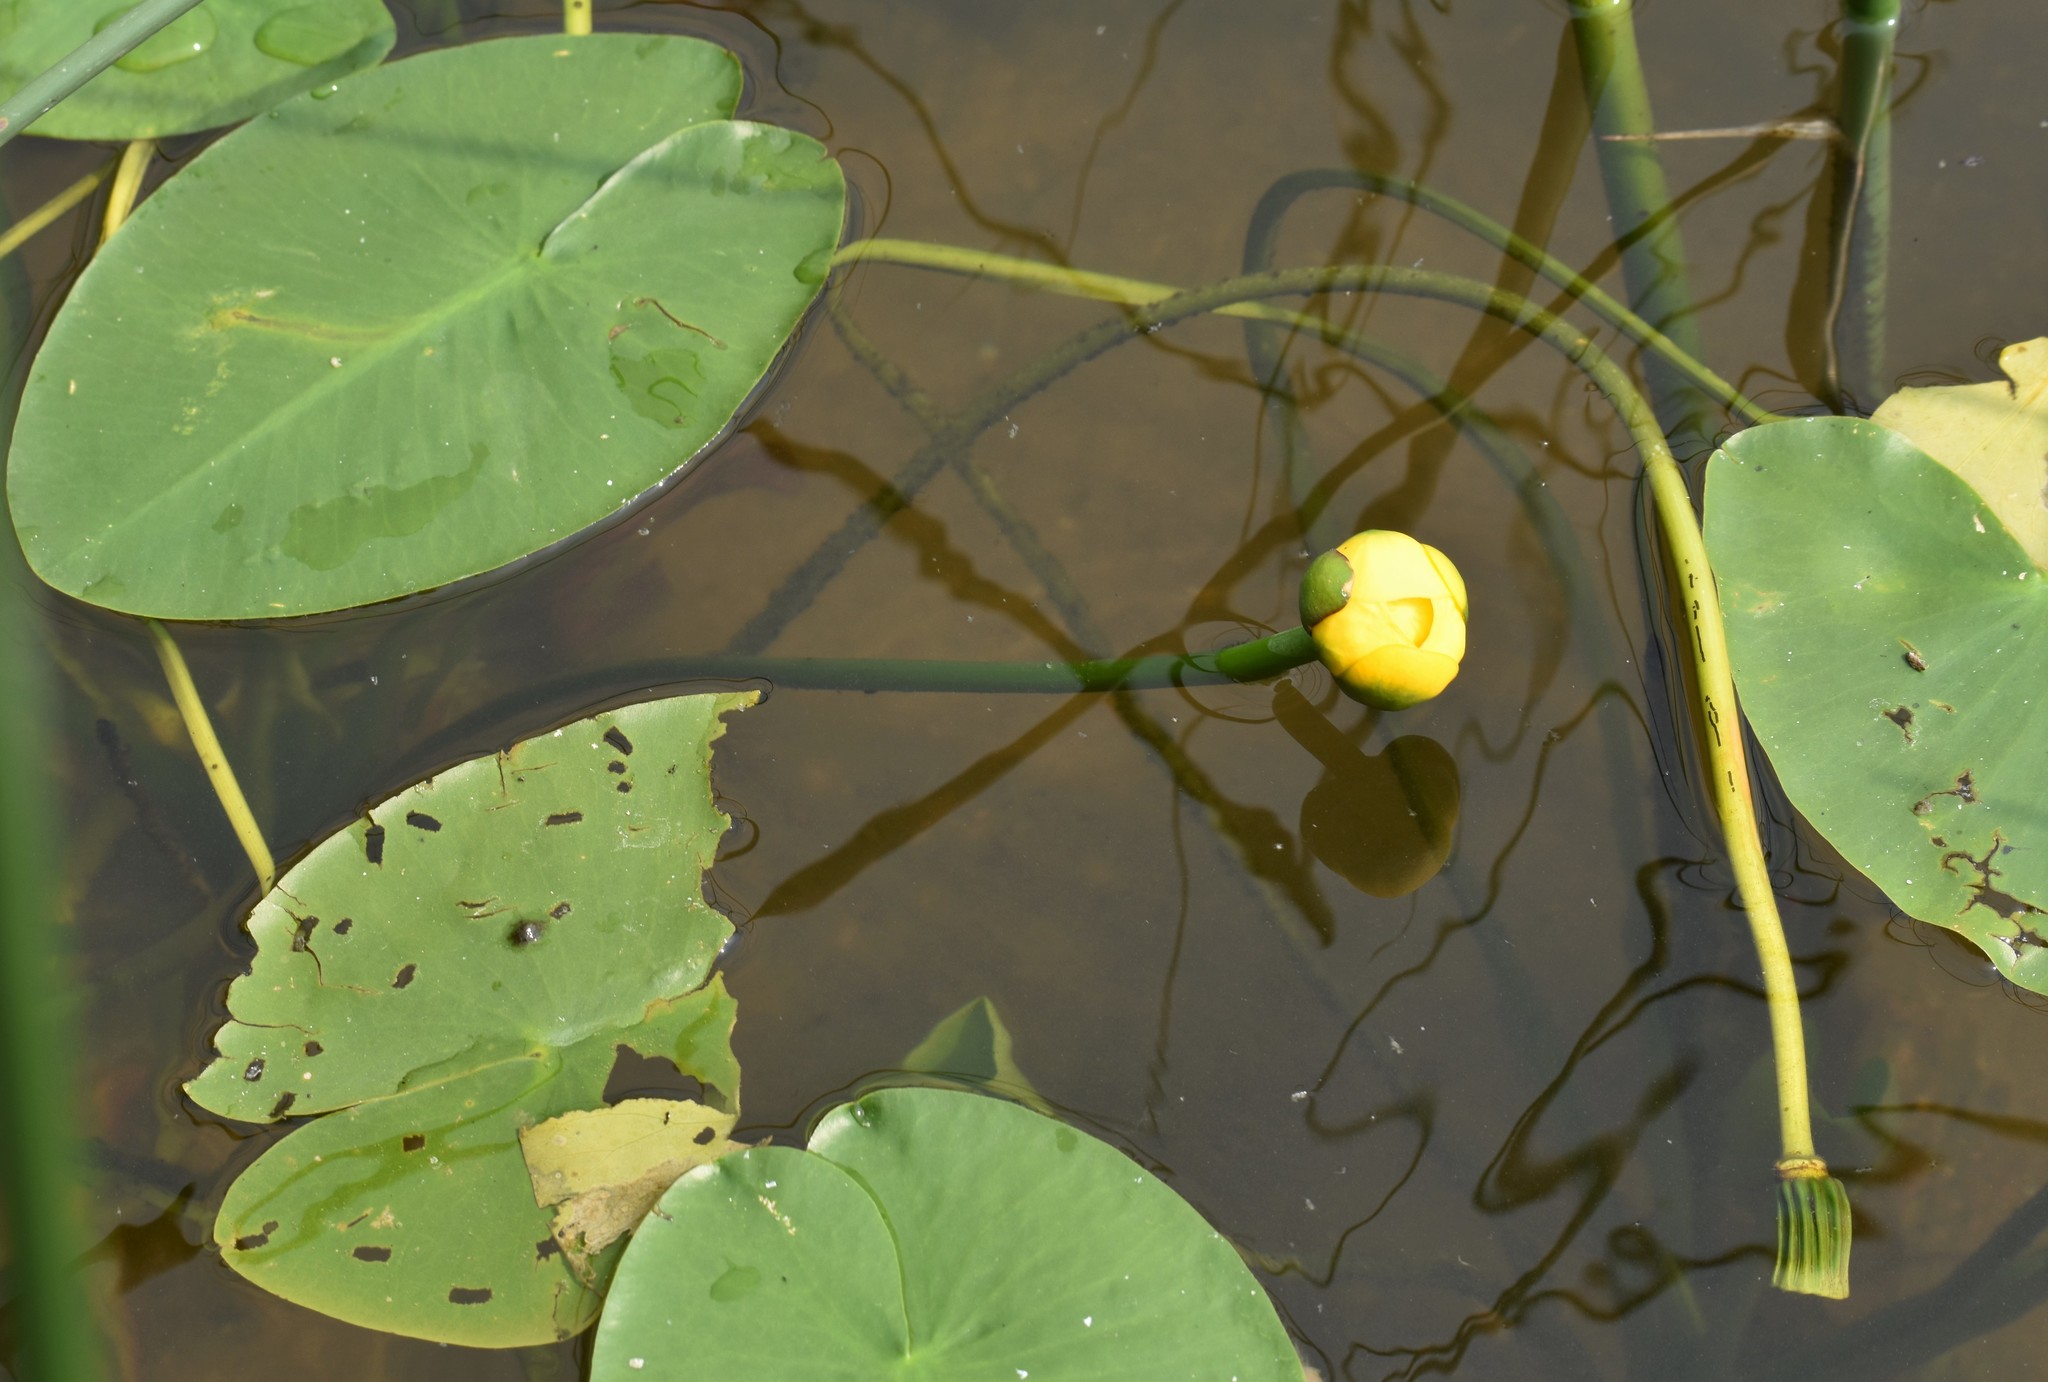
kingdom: Plantae
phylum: Tracheophyta
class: Magnoliopsida
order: Nymphaeales
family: Nymphaeaceae
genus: Nuphar
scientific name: Nuphar variegata
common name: Beaver-root
